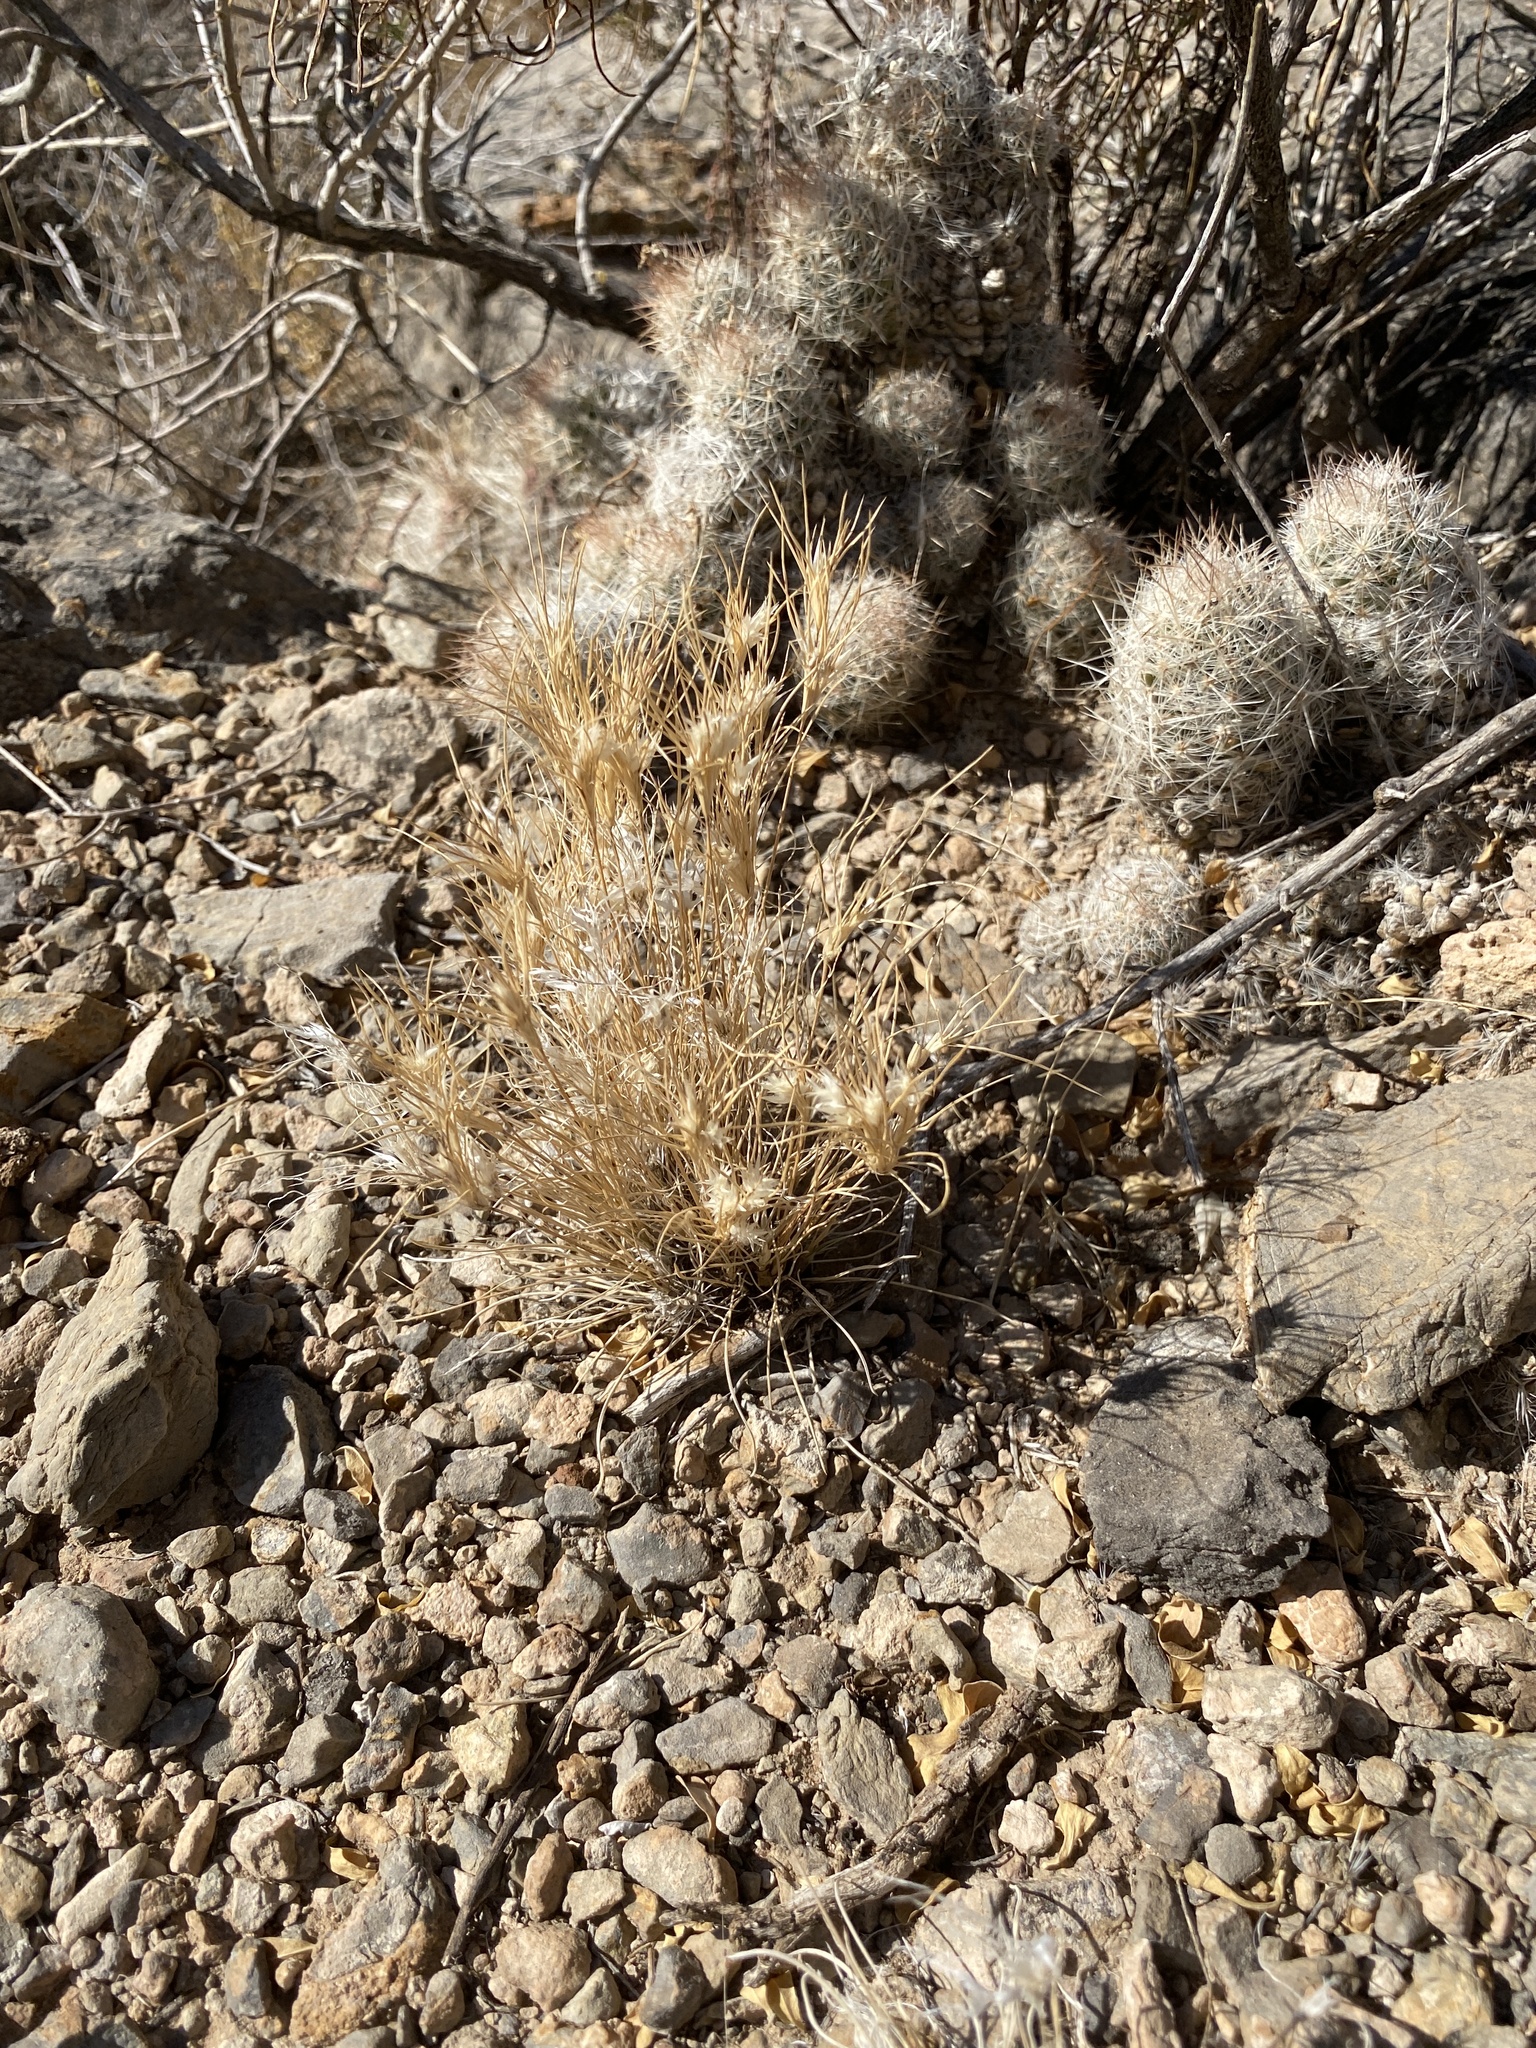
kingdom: Plantae
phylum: Tracheophyta
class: Liliopsida
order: Poales
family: Poaceae
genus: Dasyochloa
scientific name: Dasyochloa pulchella
